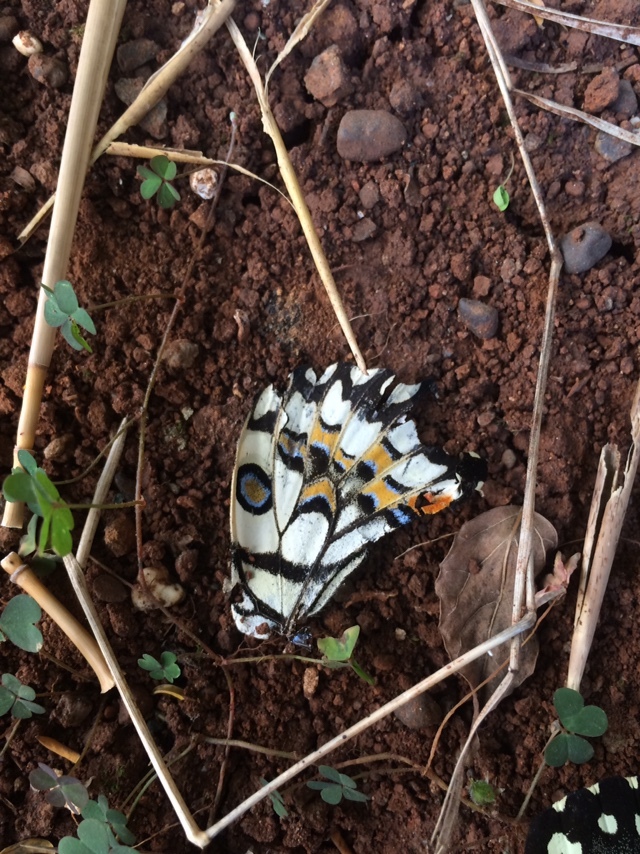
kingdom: Animalia
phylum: Arthropoda
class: Insecta
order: Lepidoptera
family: Papilionidae
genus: Papilio
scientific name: Papilio demoleus
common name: Lime butterfly
